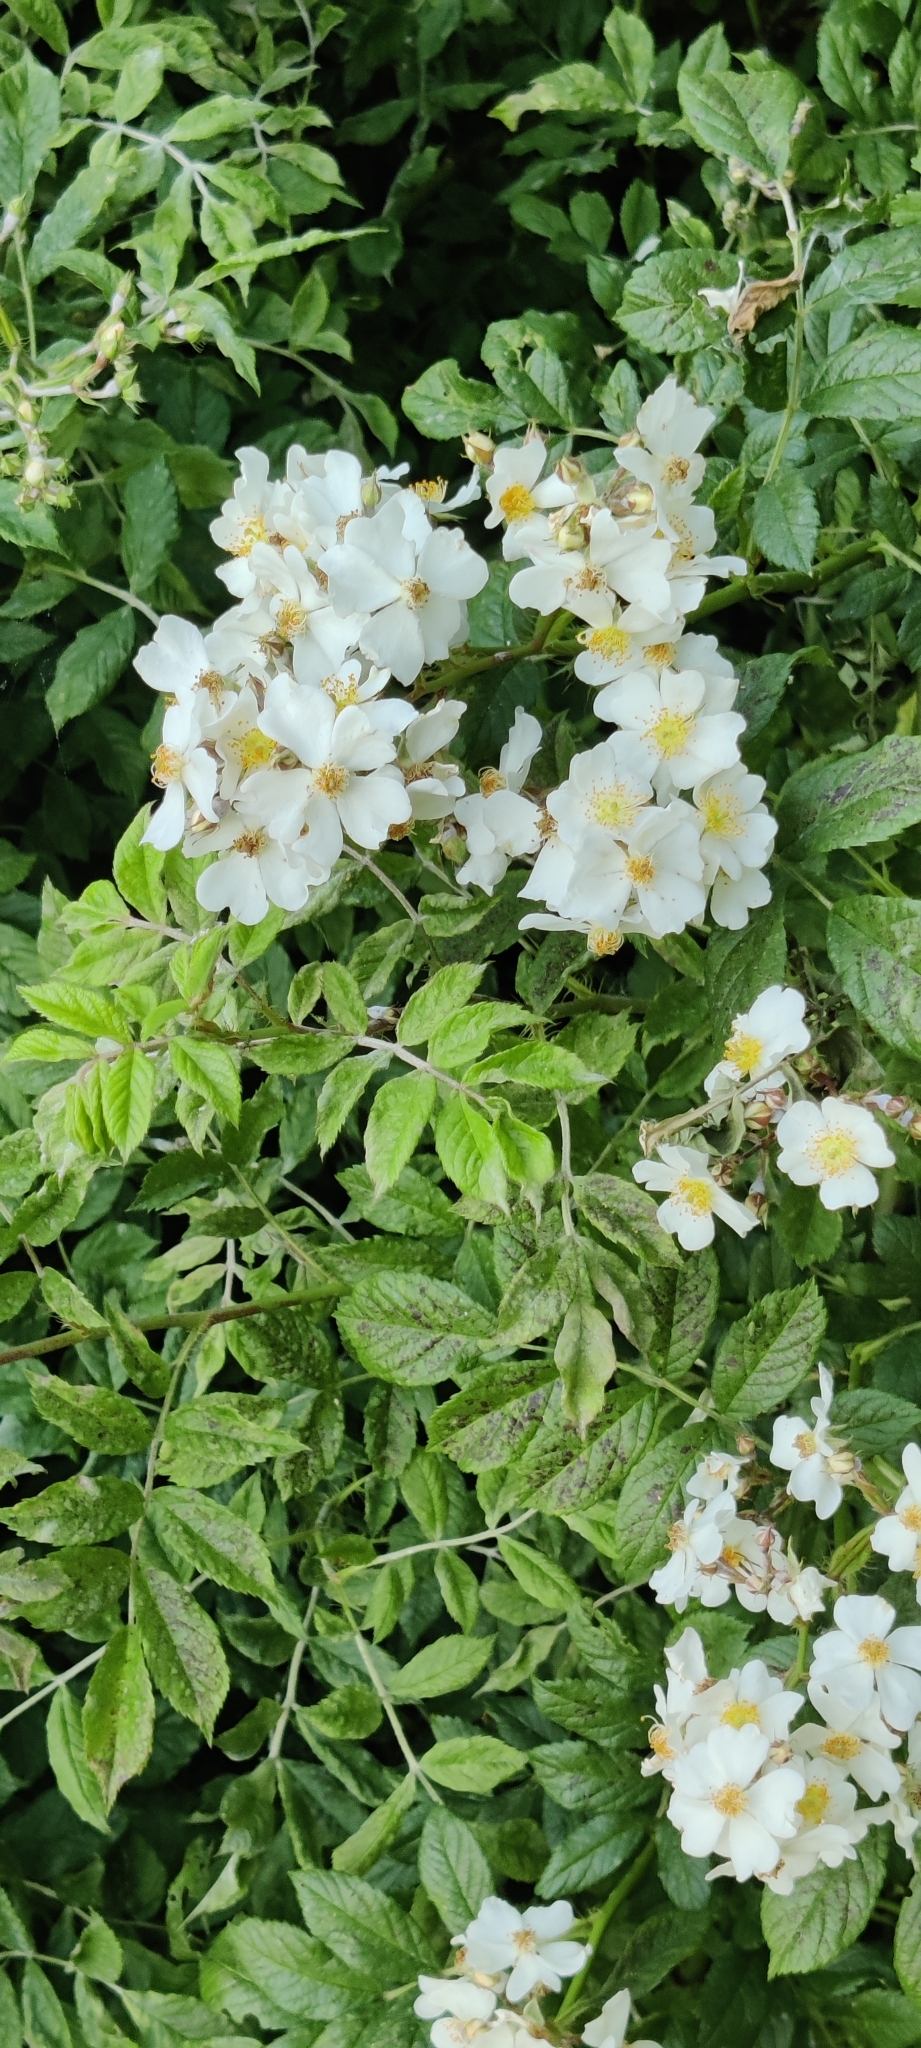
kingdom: Plantae
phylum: Tracheophyta
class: Magnoliopsida
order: Rosales
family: Rosaceae
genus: Rosa
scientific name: Rosa multiflora
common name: Multiflora rose
